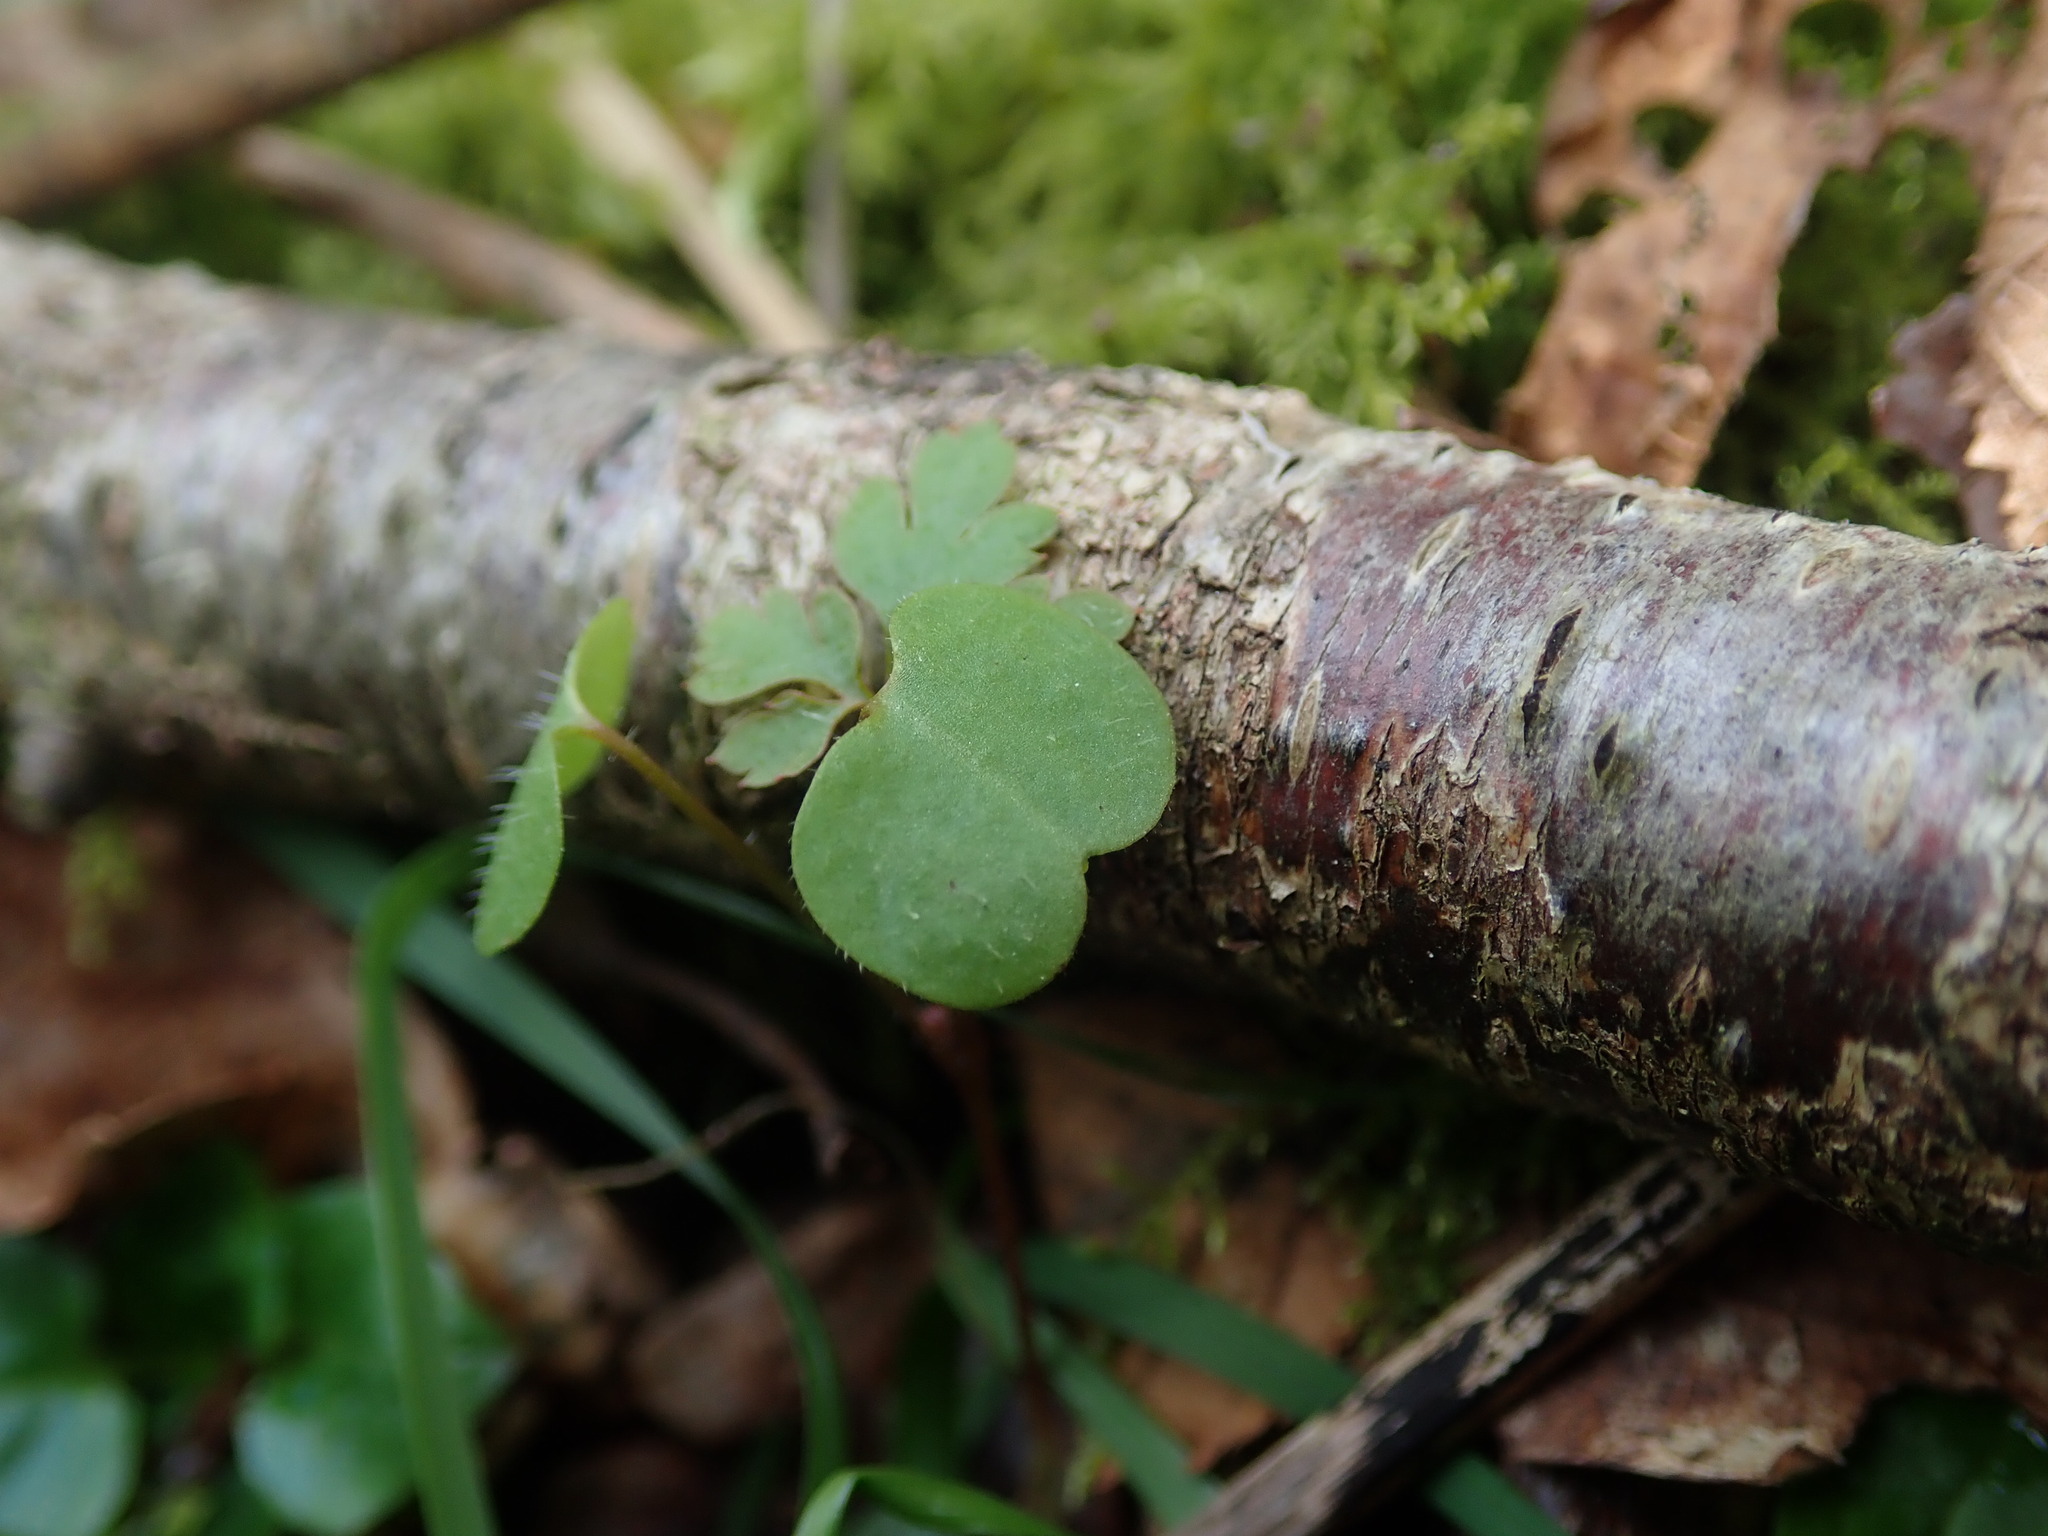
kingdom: Plantae
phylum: Tracheophyta
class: Magnoliopsida
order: Geraniales
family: Geraniaceae
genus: Geranium
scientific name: Geranium robertianum
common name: Herb-robert
